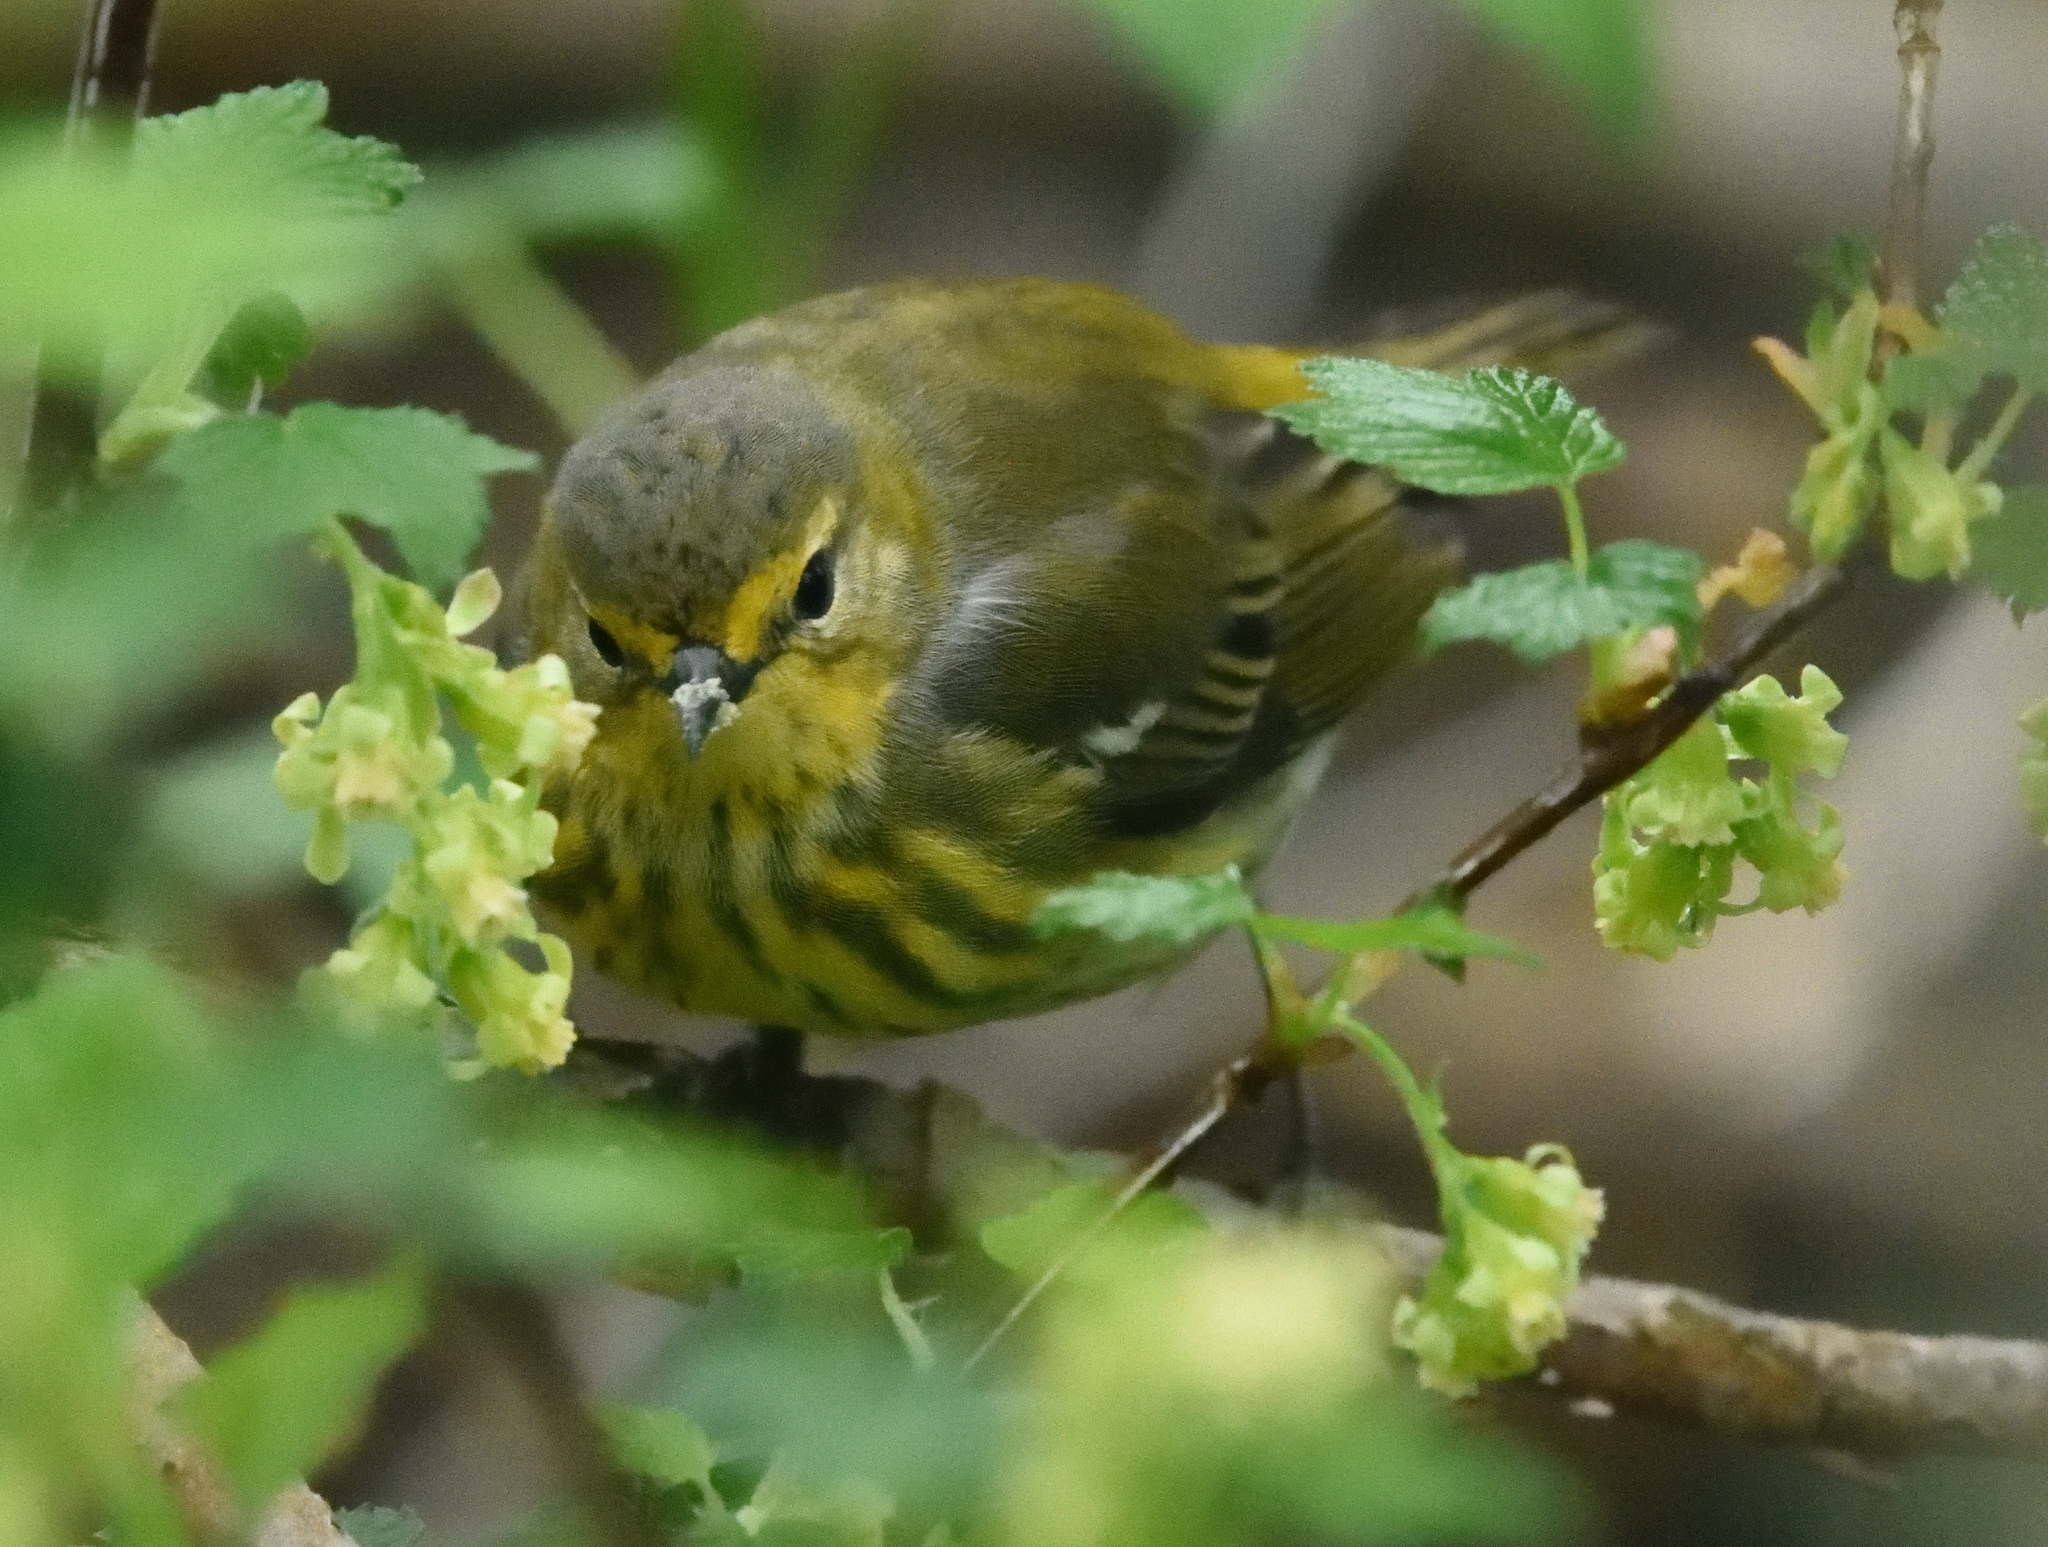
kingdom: Animalia
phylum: Chordata
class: Aves
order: Passeriformes
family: Parulidae
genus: Setophaga
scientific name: Setophaga tigrina
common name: Cape may warbler
